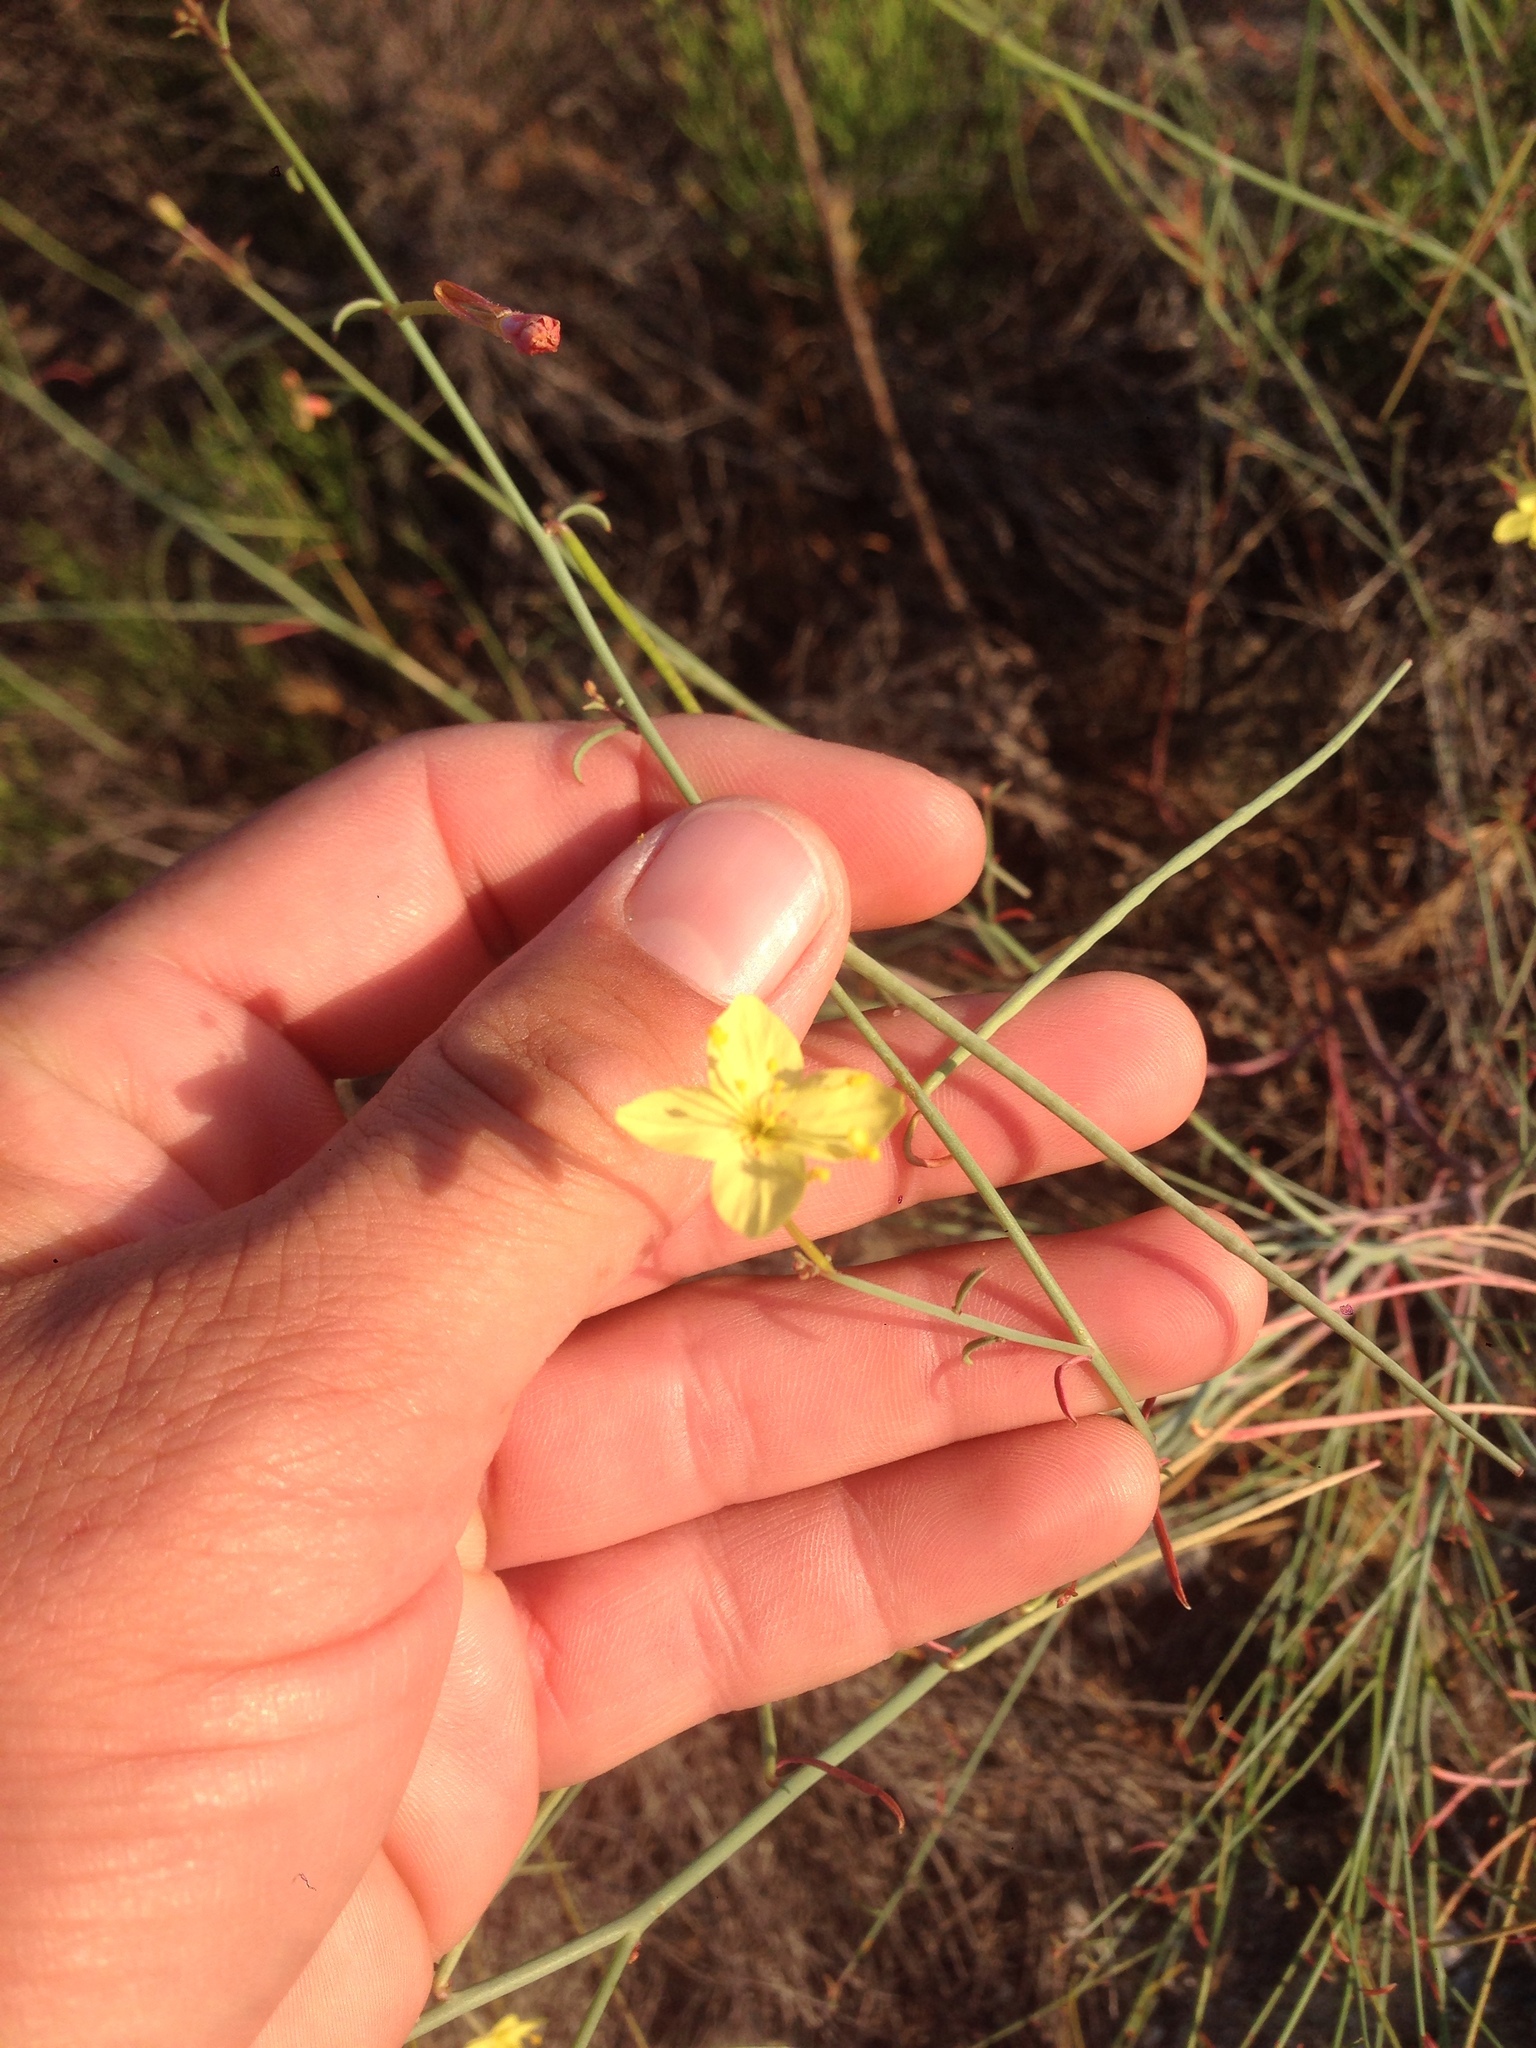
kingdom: Plantae
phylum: Tracheophyta
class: Magnoliopsida
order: Myrtales
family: Onagraceae
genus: Eulobus
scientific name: Eulobus californicus
